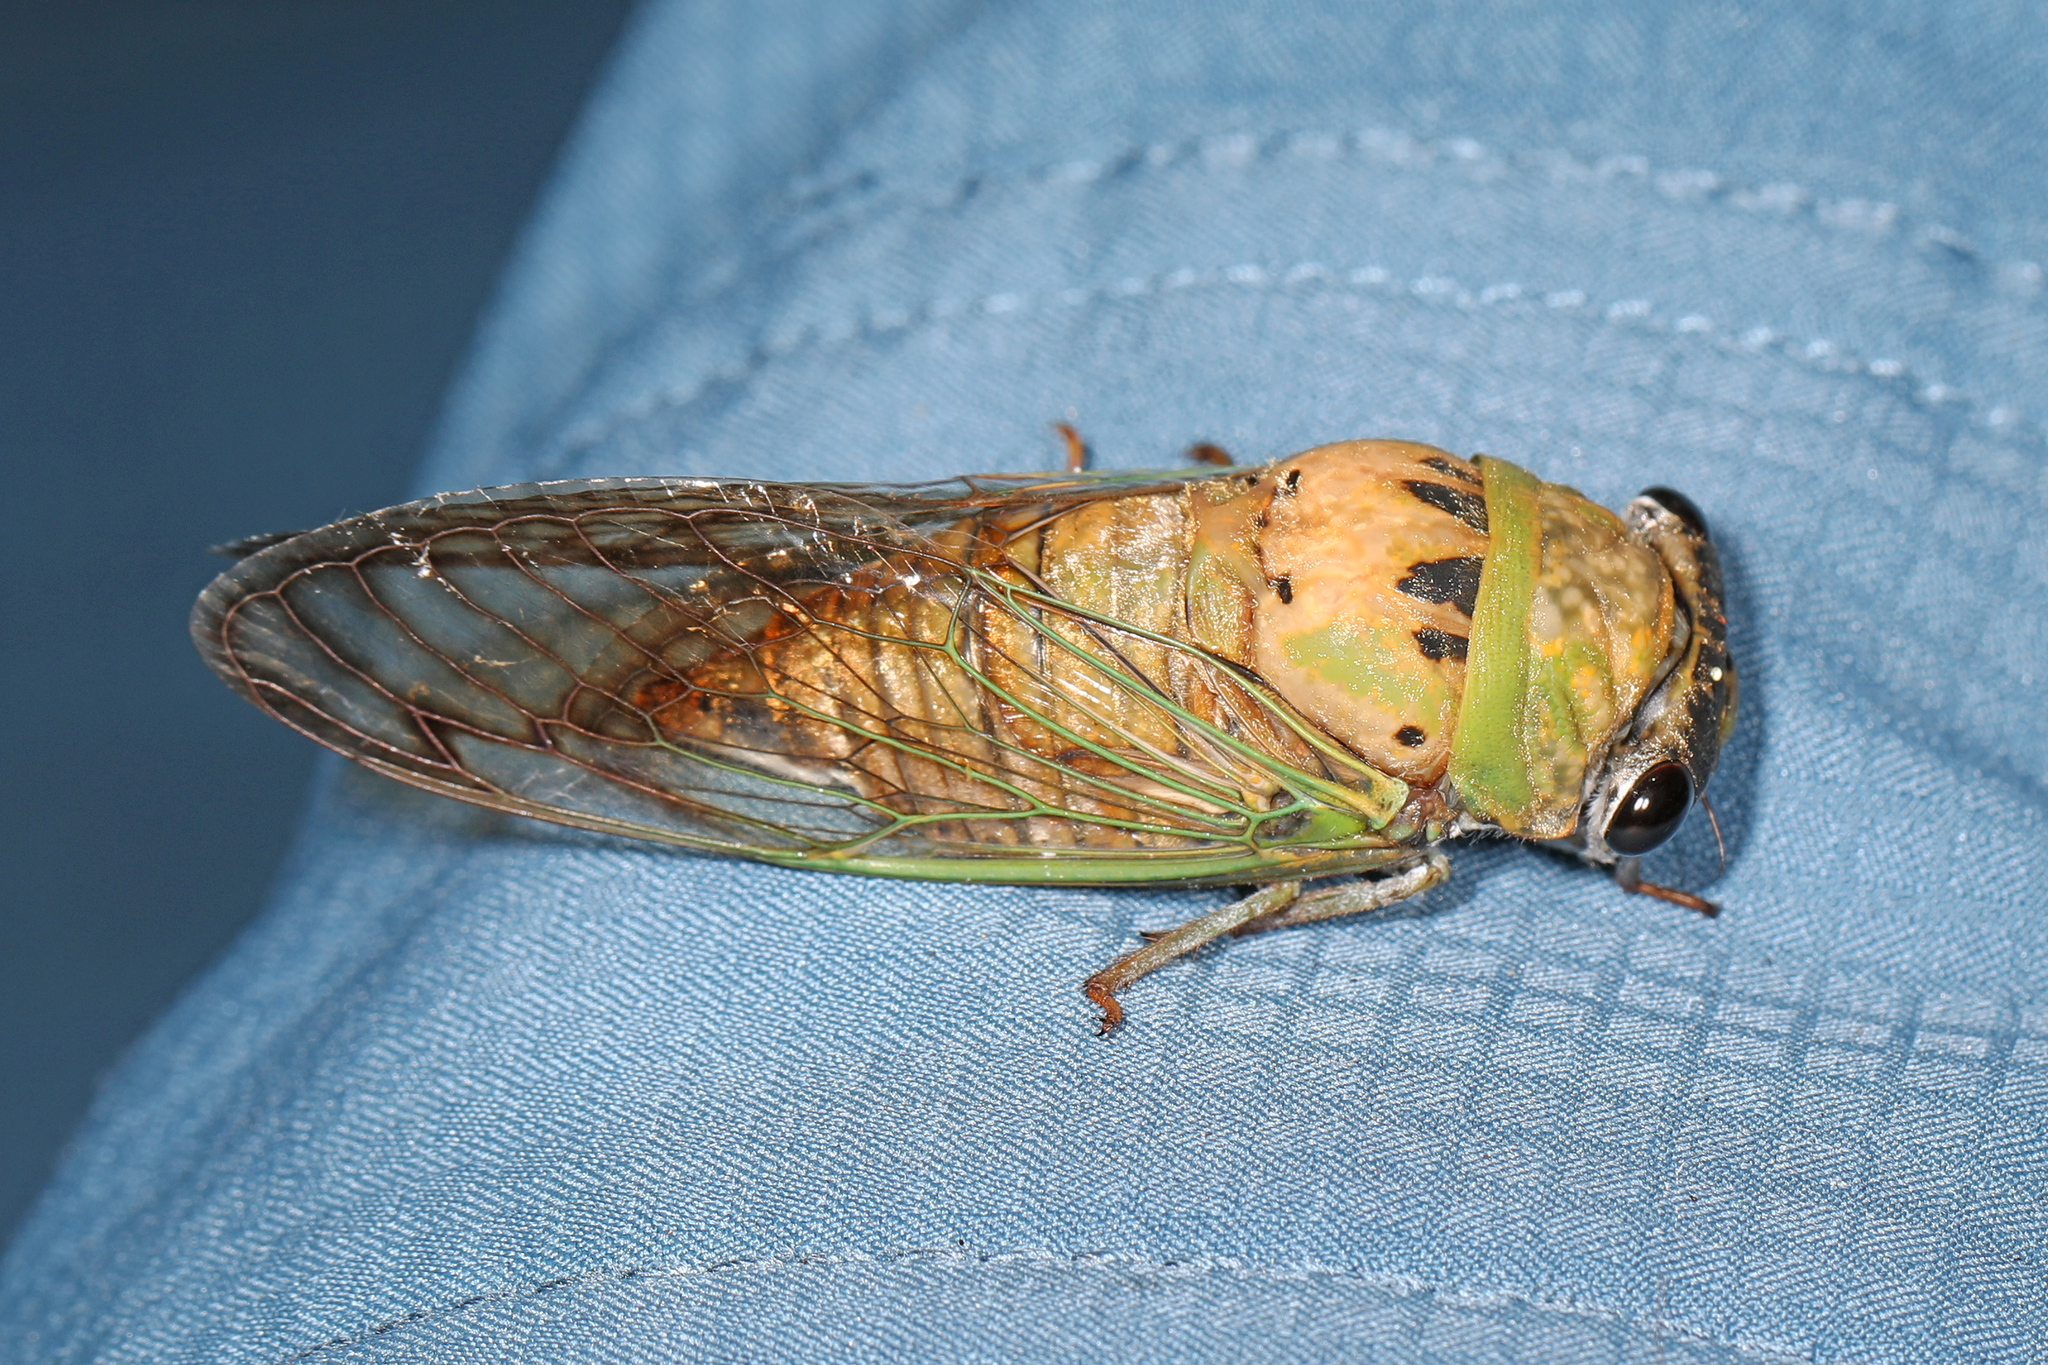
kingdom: Animalia
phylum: Arthropoda
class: Insecta
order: Hemiptera
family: Cicadidae
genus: Neotibicen
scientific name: Neotibicen superbus
